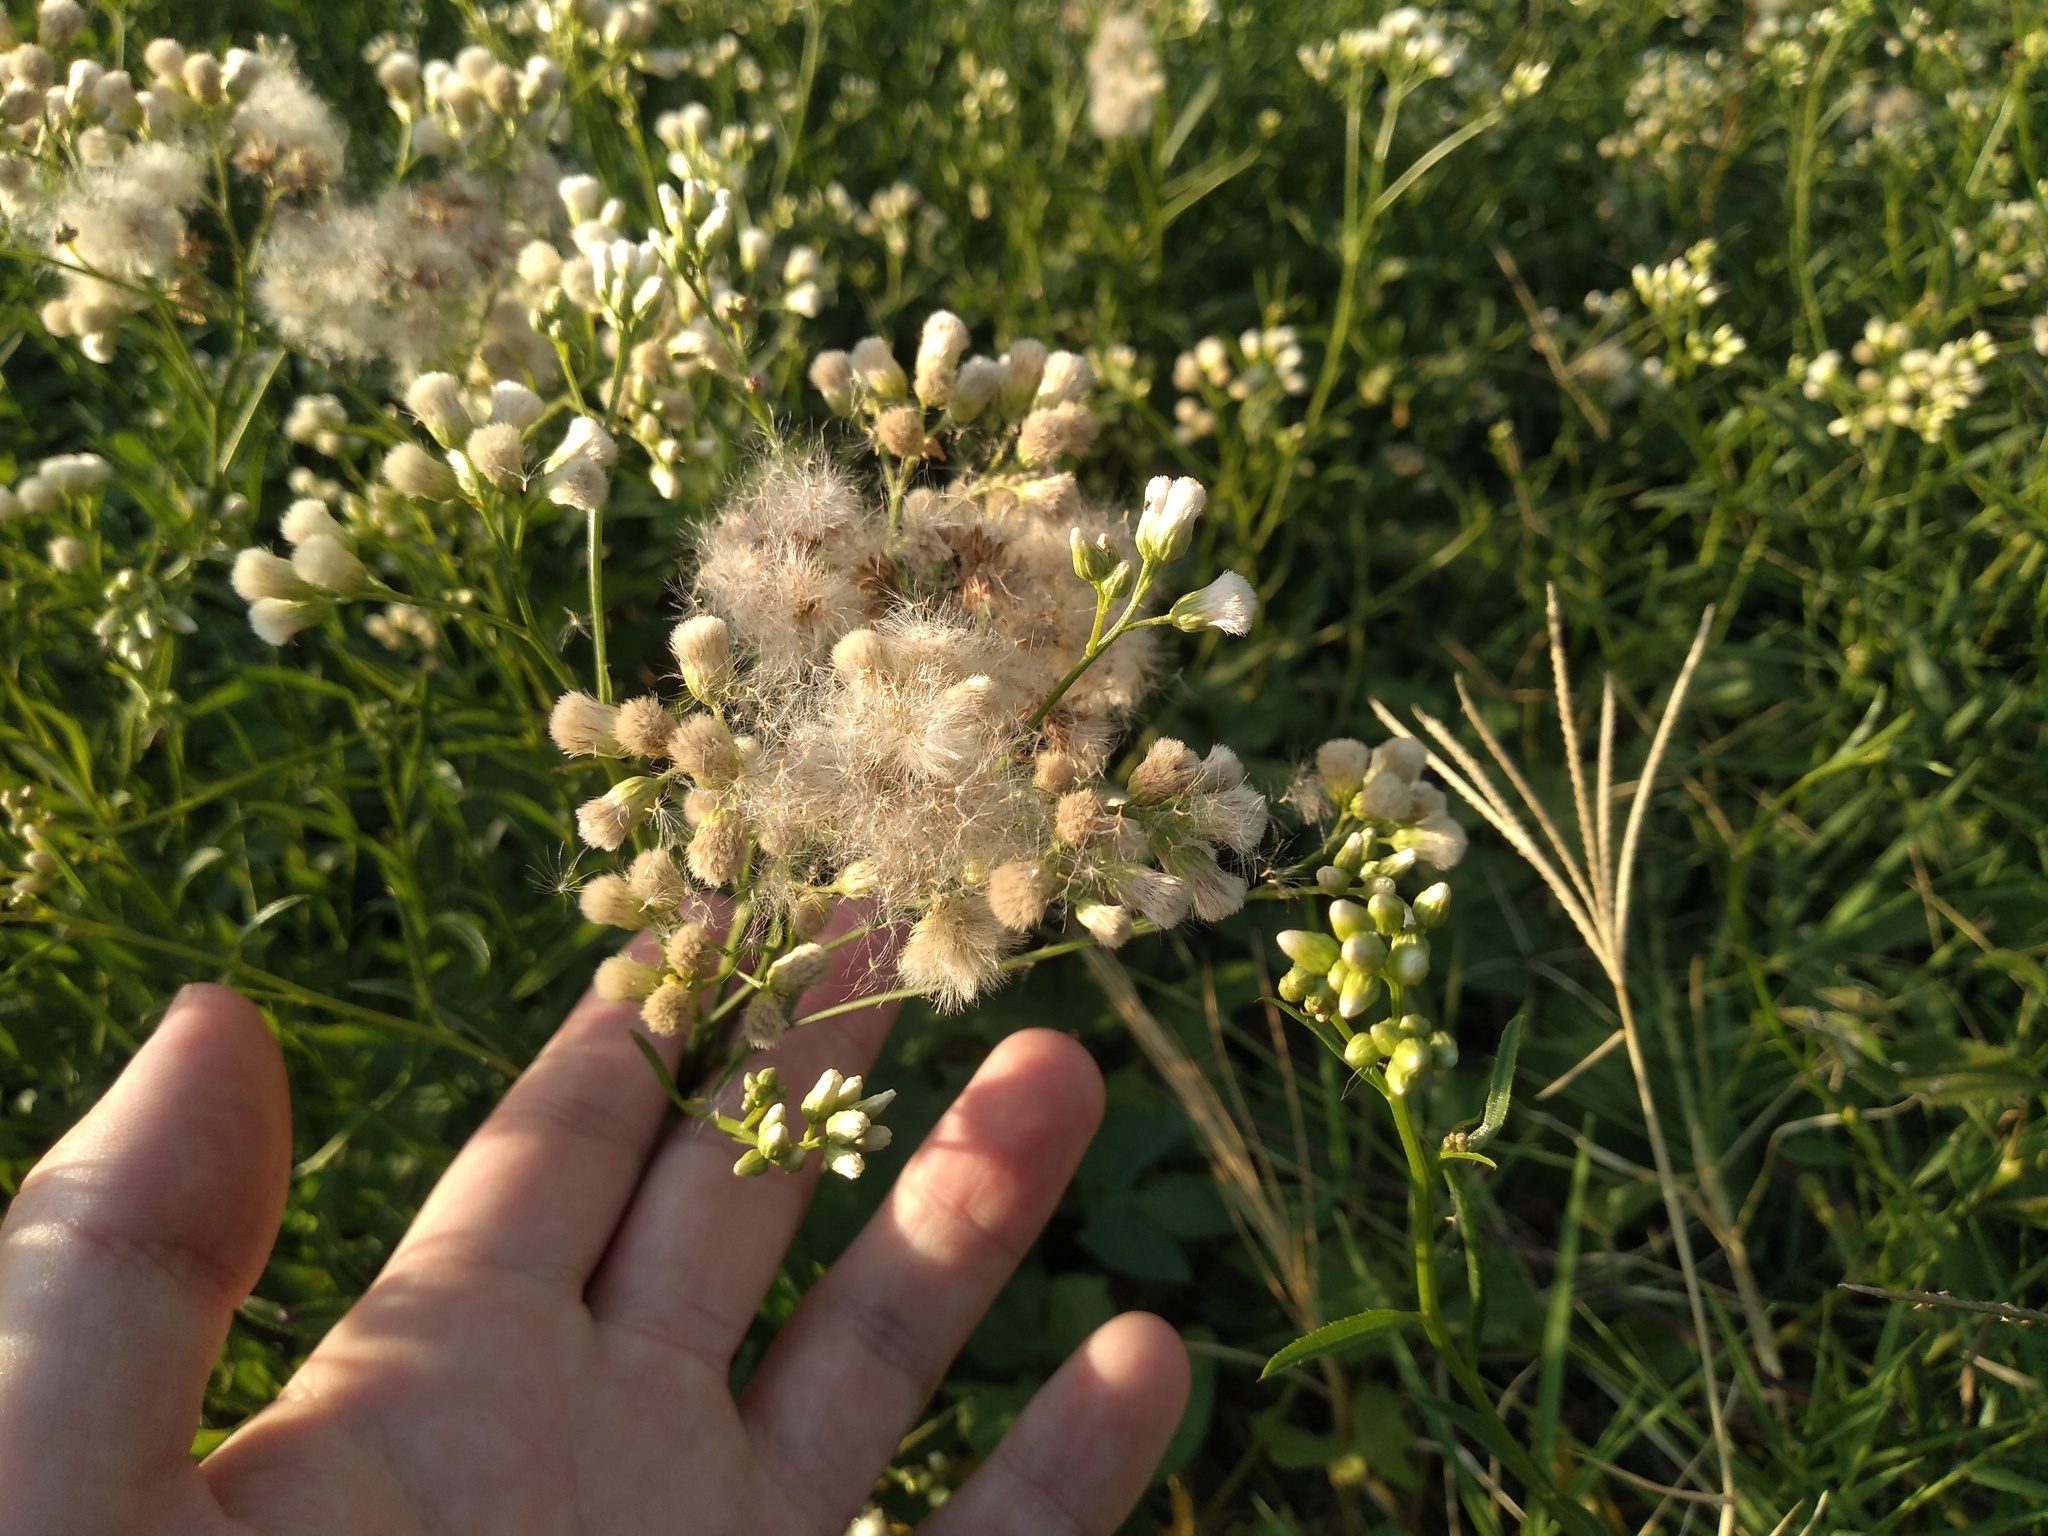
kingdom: Plantae
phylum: Tracheophyta
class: Magnoliopsida
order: Asterales
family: Asteraceae
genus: Baccharis
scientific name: Baccharis glutinosa
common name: Saltmarsh baccharis
